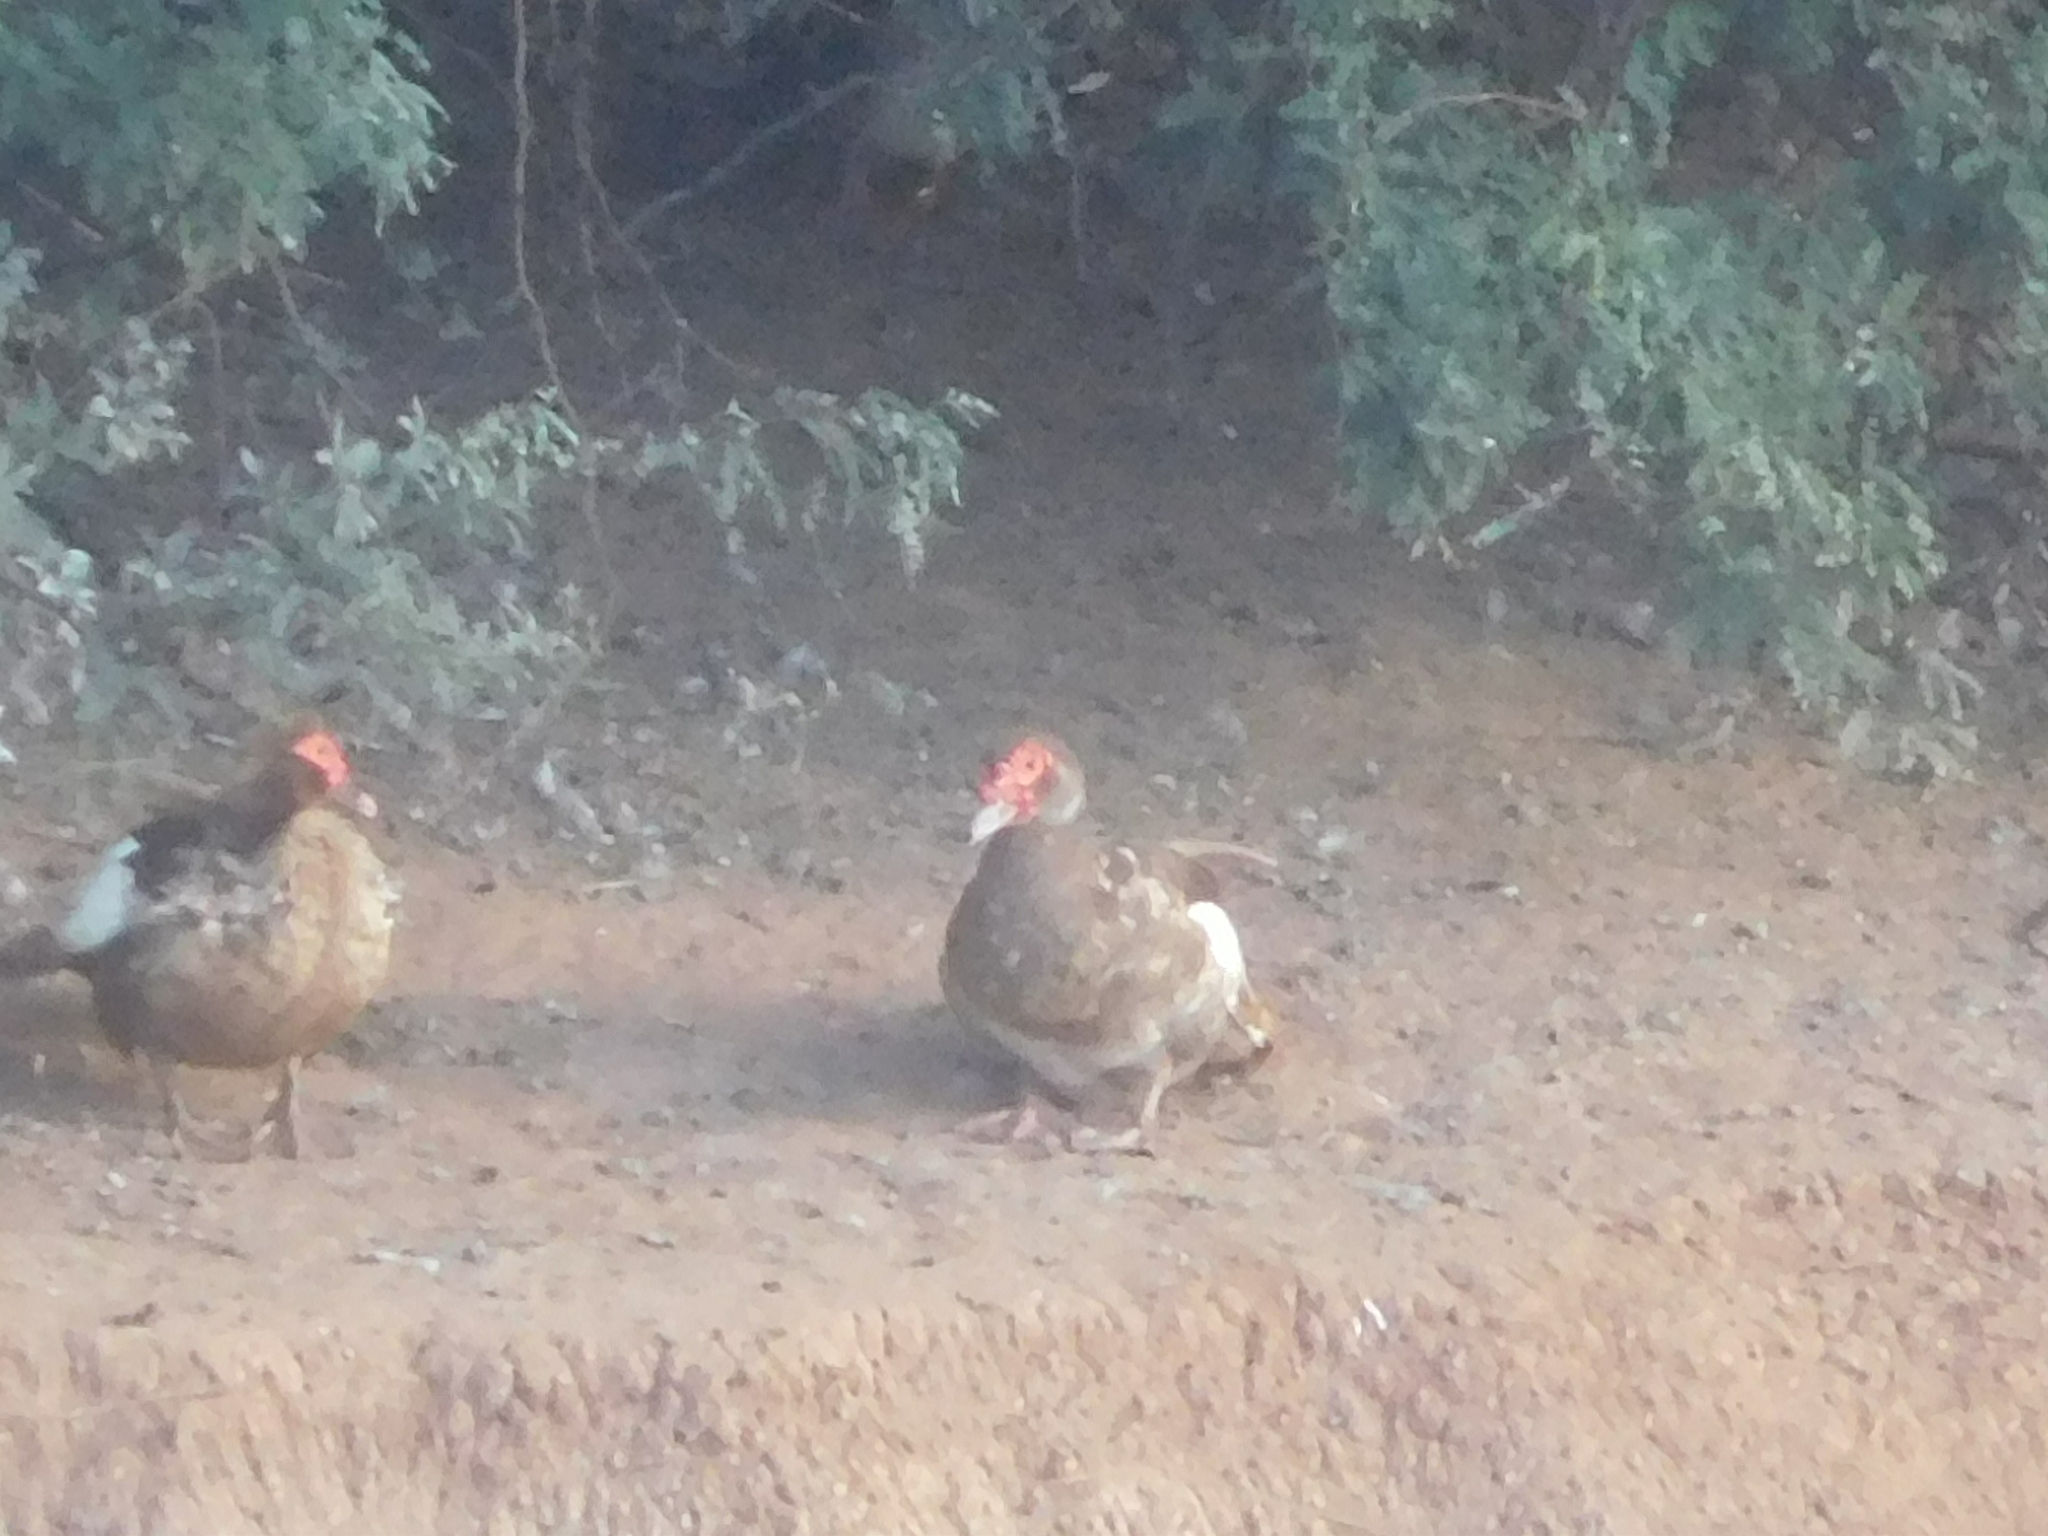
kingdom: Animalia
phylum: Chordata
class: Aves
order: Anseriformes
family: Anatidae
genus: Cairina
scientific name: Cairina moschata
